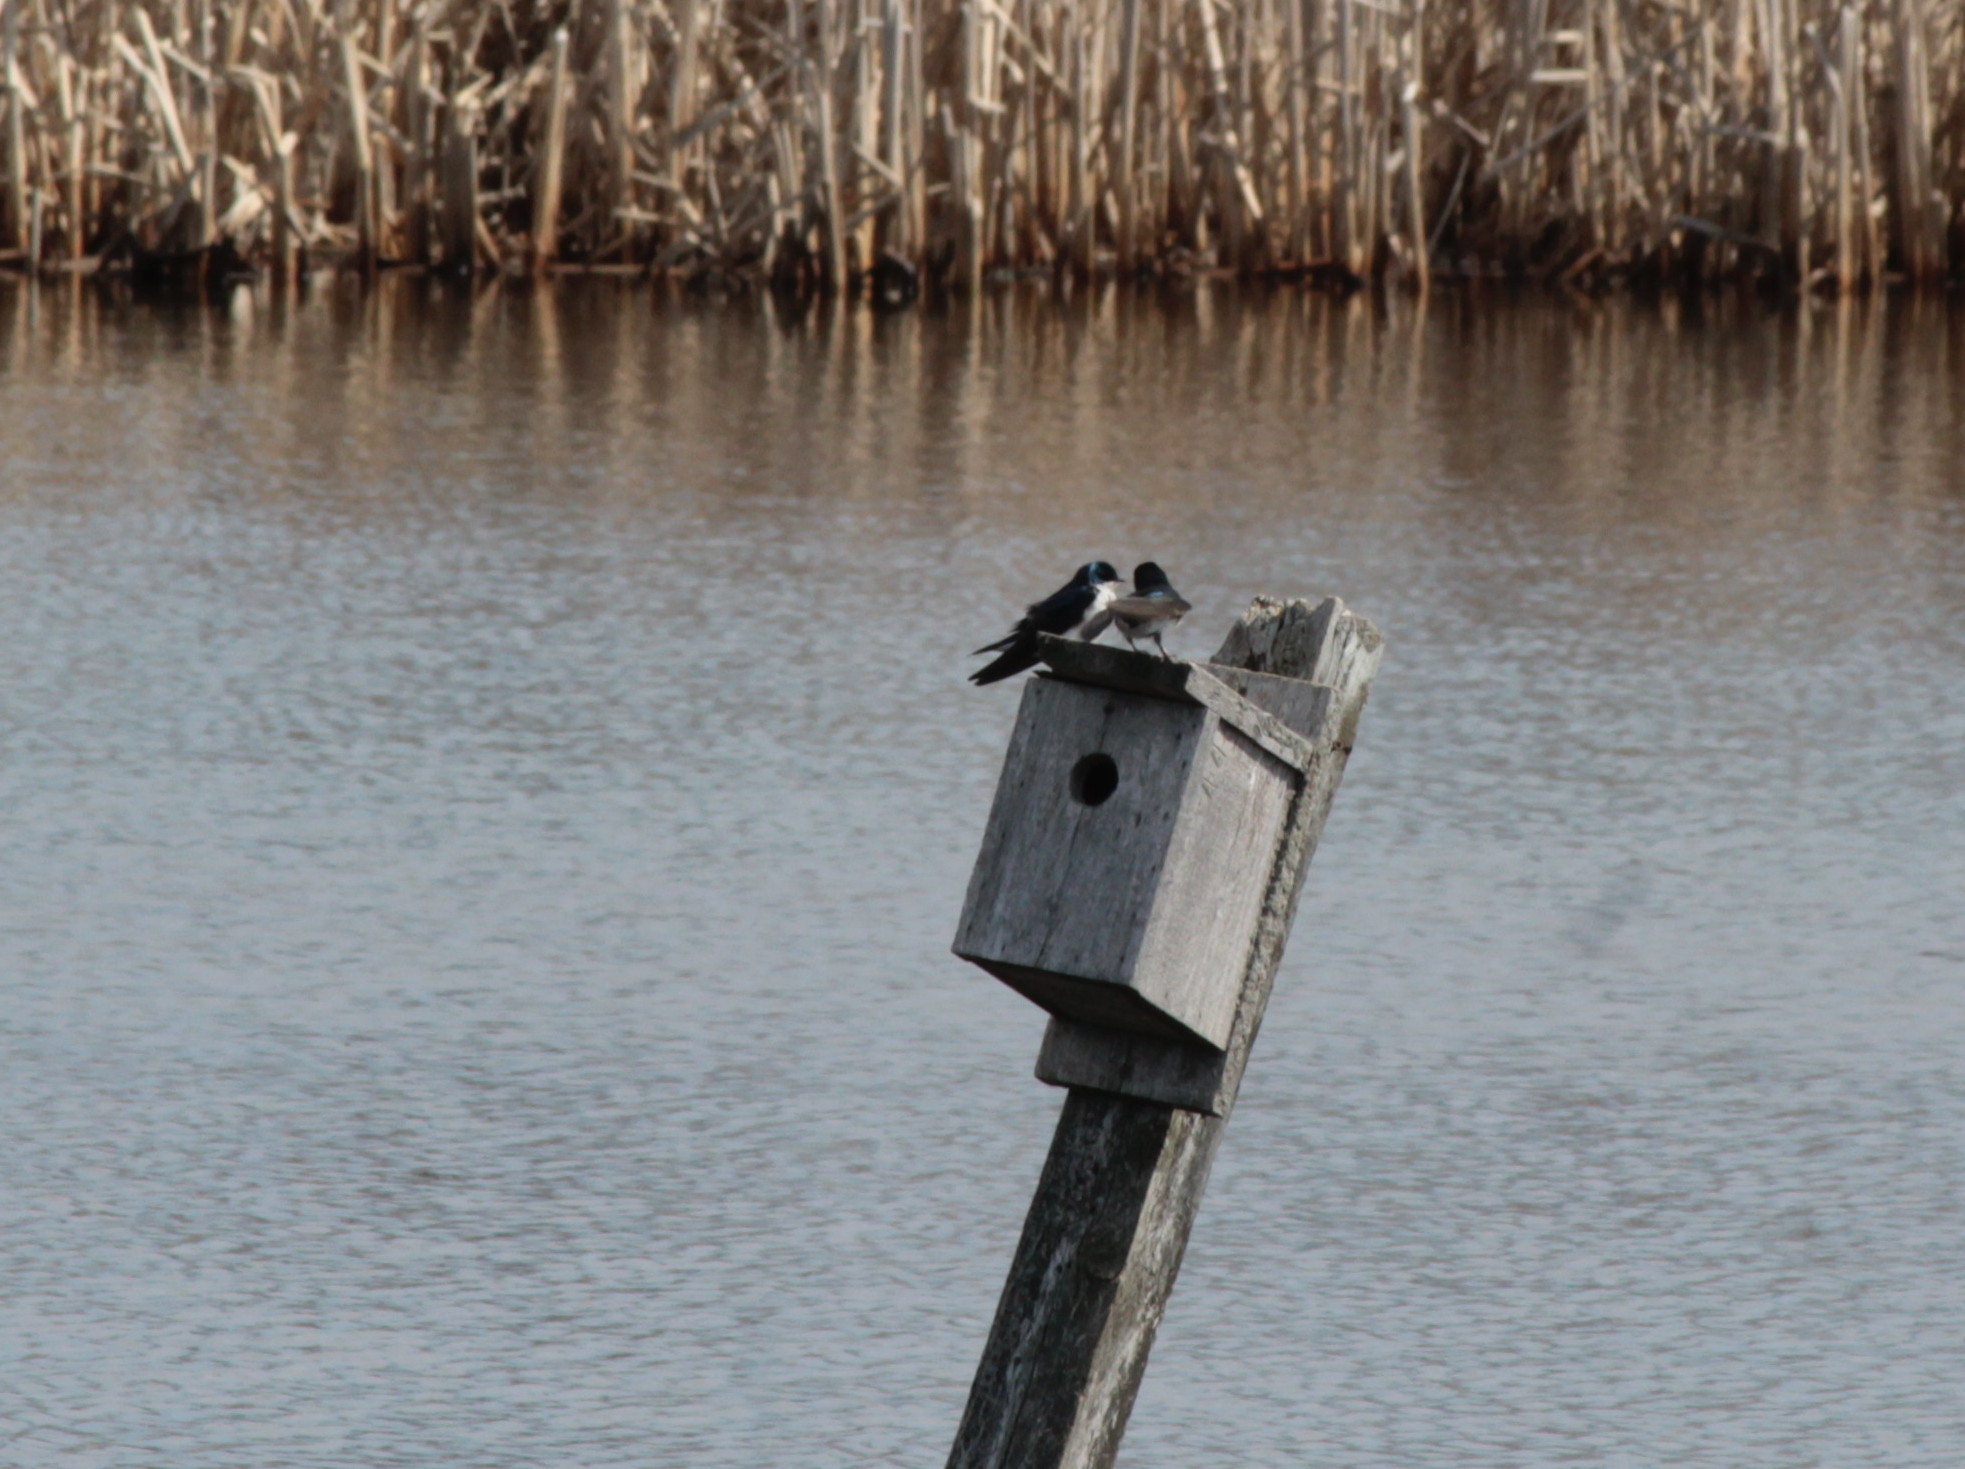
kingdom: Animalia
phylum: Chordata
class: Aves
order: Passeriformes
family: Hirundinidae
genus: Tachycineta
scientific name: Tachycineta bicolor
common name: Tree swallow
